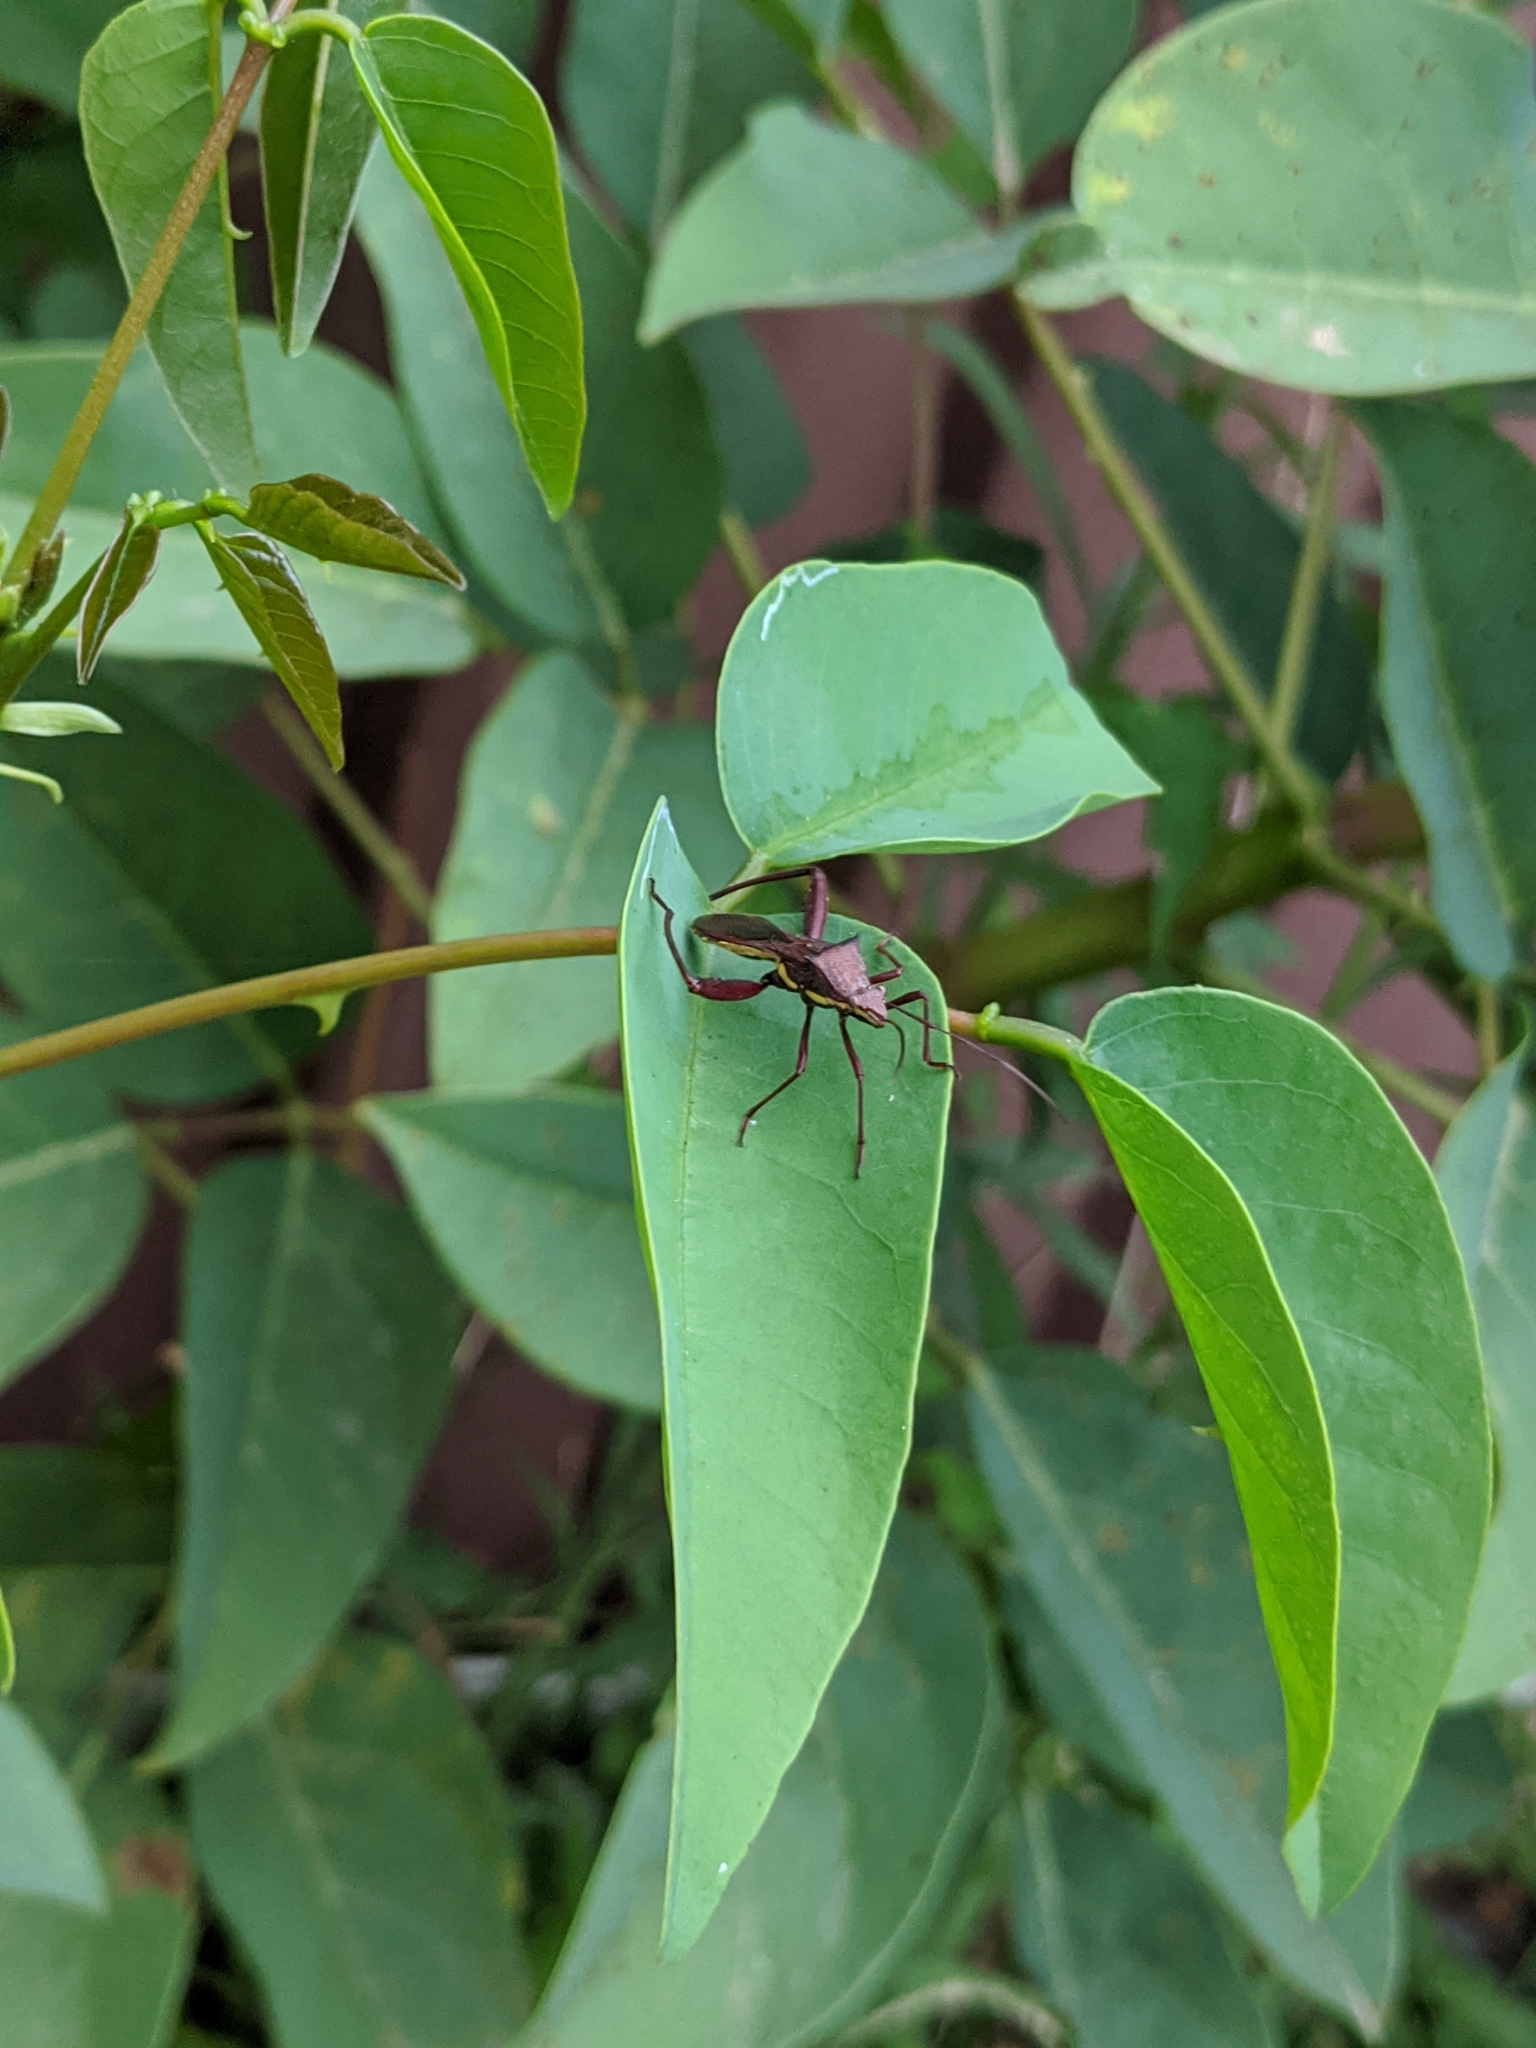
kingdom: Animalia
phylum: Arthropoda
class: Insecta
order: Hemiptera
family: Alydidae
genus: Riptortus
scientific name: Riptortus serripes
